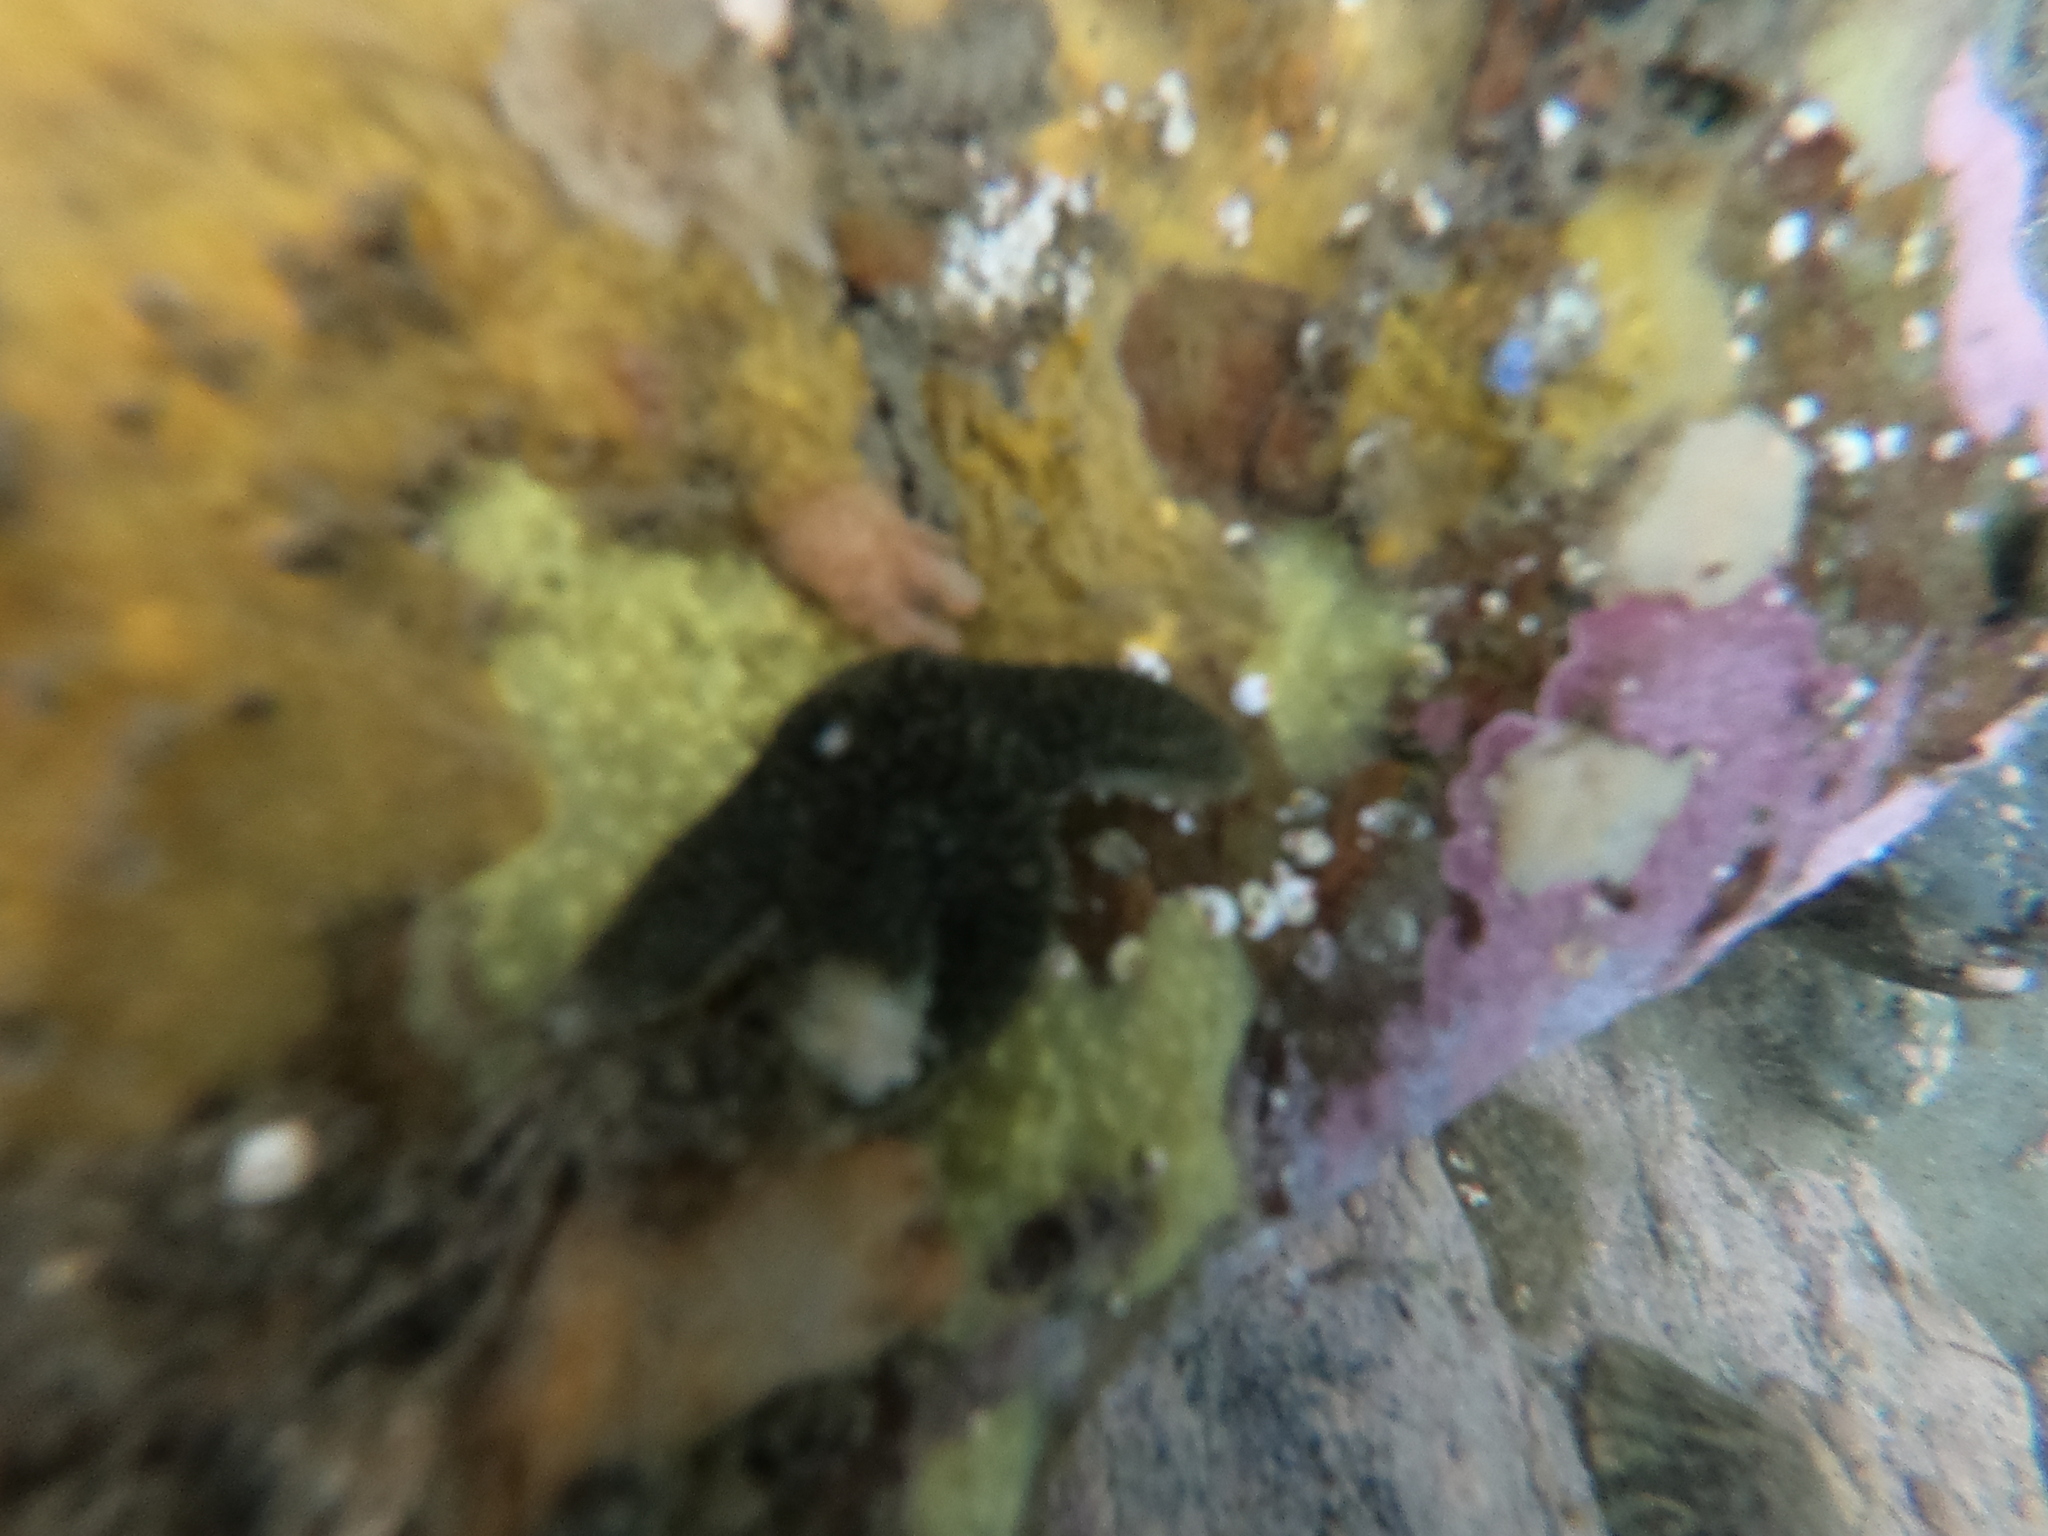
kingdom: Animalia
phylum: Echinodermata
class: Asteroidea
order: Forcipulatida
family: Asteriidae
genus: Anasterias
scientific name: Anasterias antarctica
